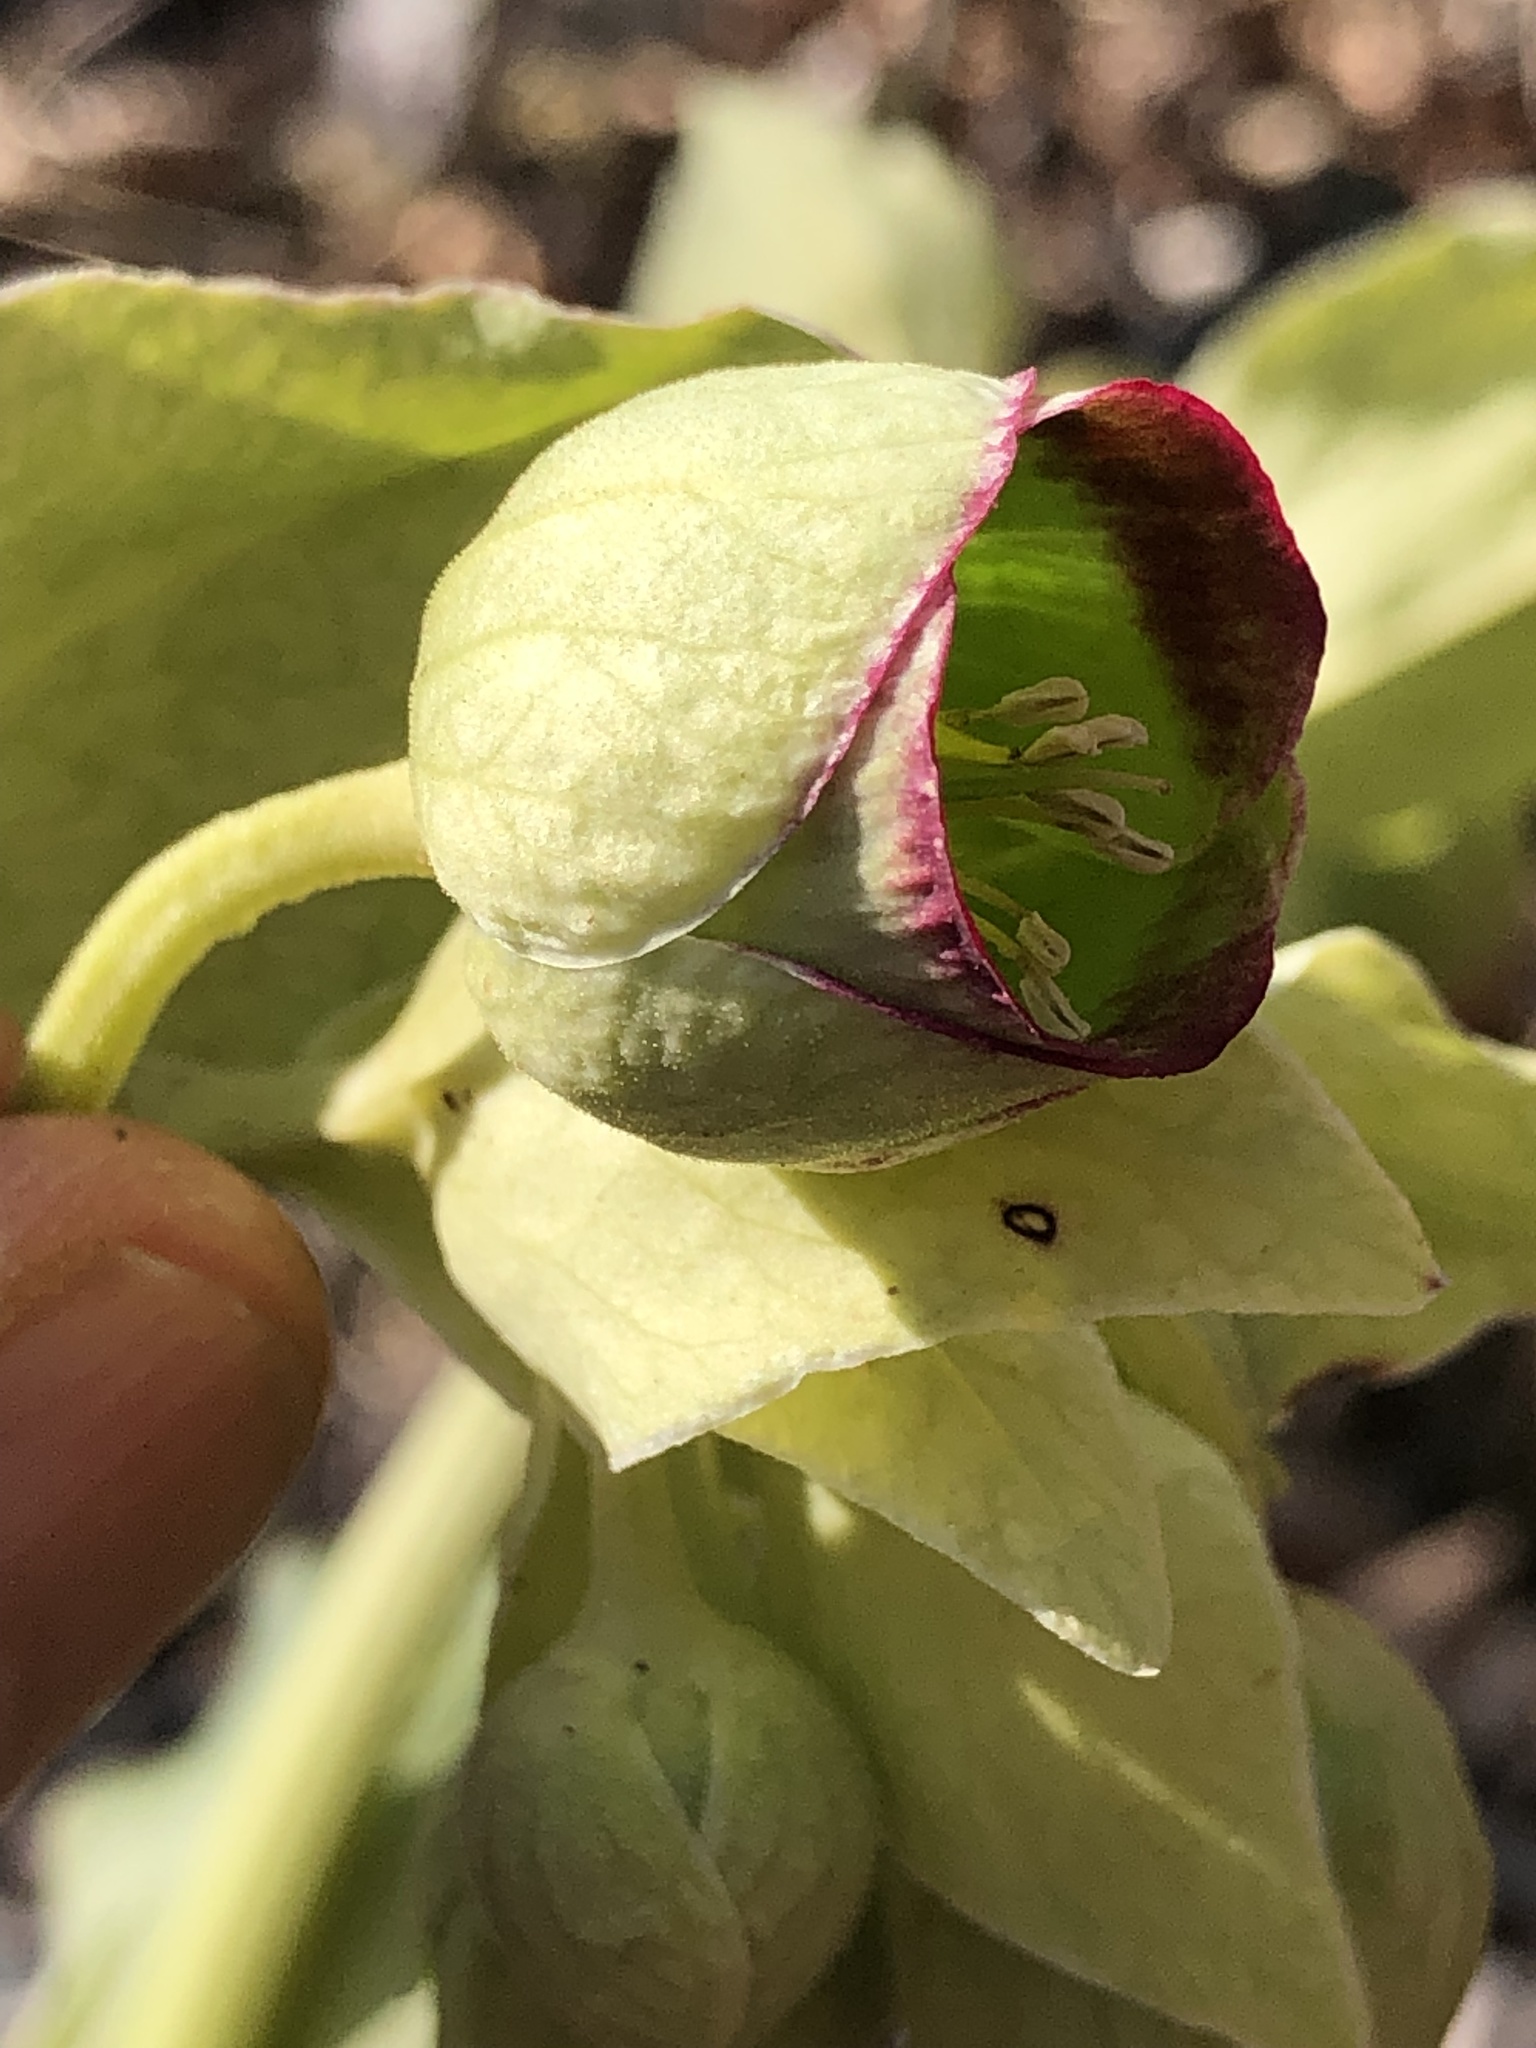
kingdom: Plantae
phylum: Tracheophyta
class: Magnoliopsida
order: Ranunculales
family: Ranunculaceae
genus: Helleborus
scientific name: Helleborus foetidus
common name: Stinking hellebore
